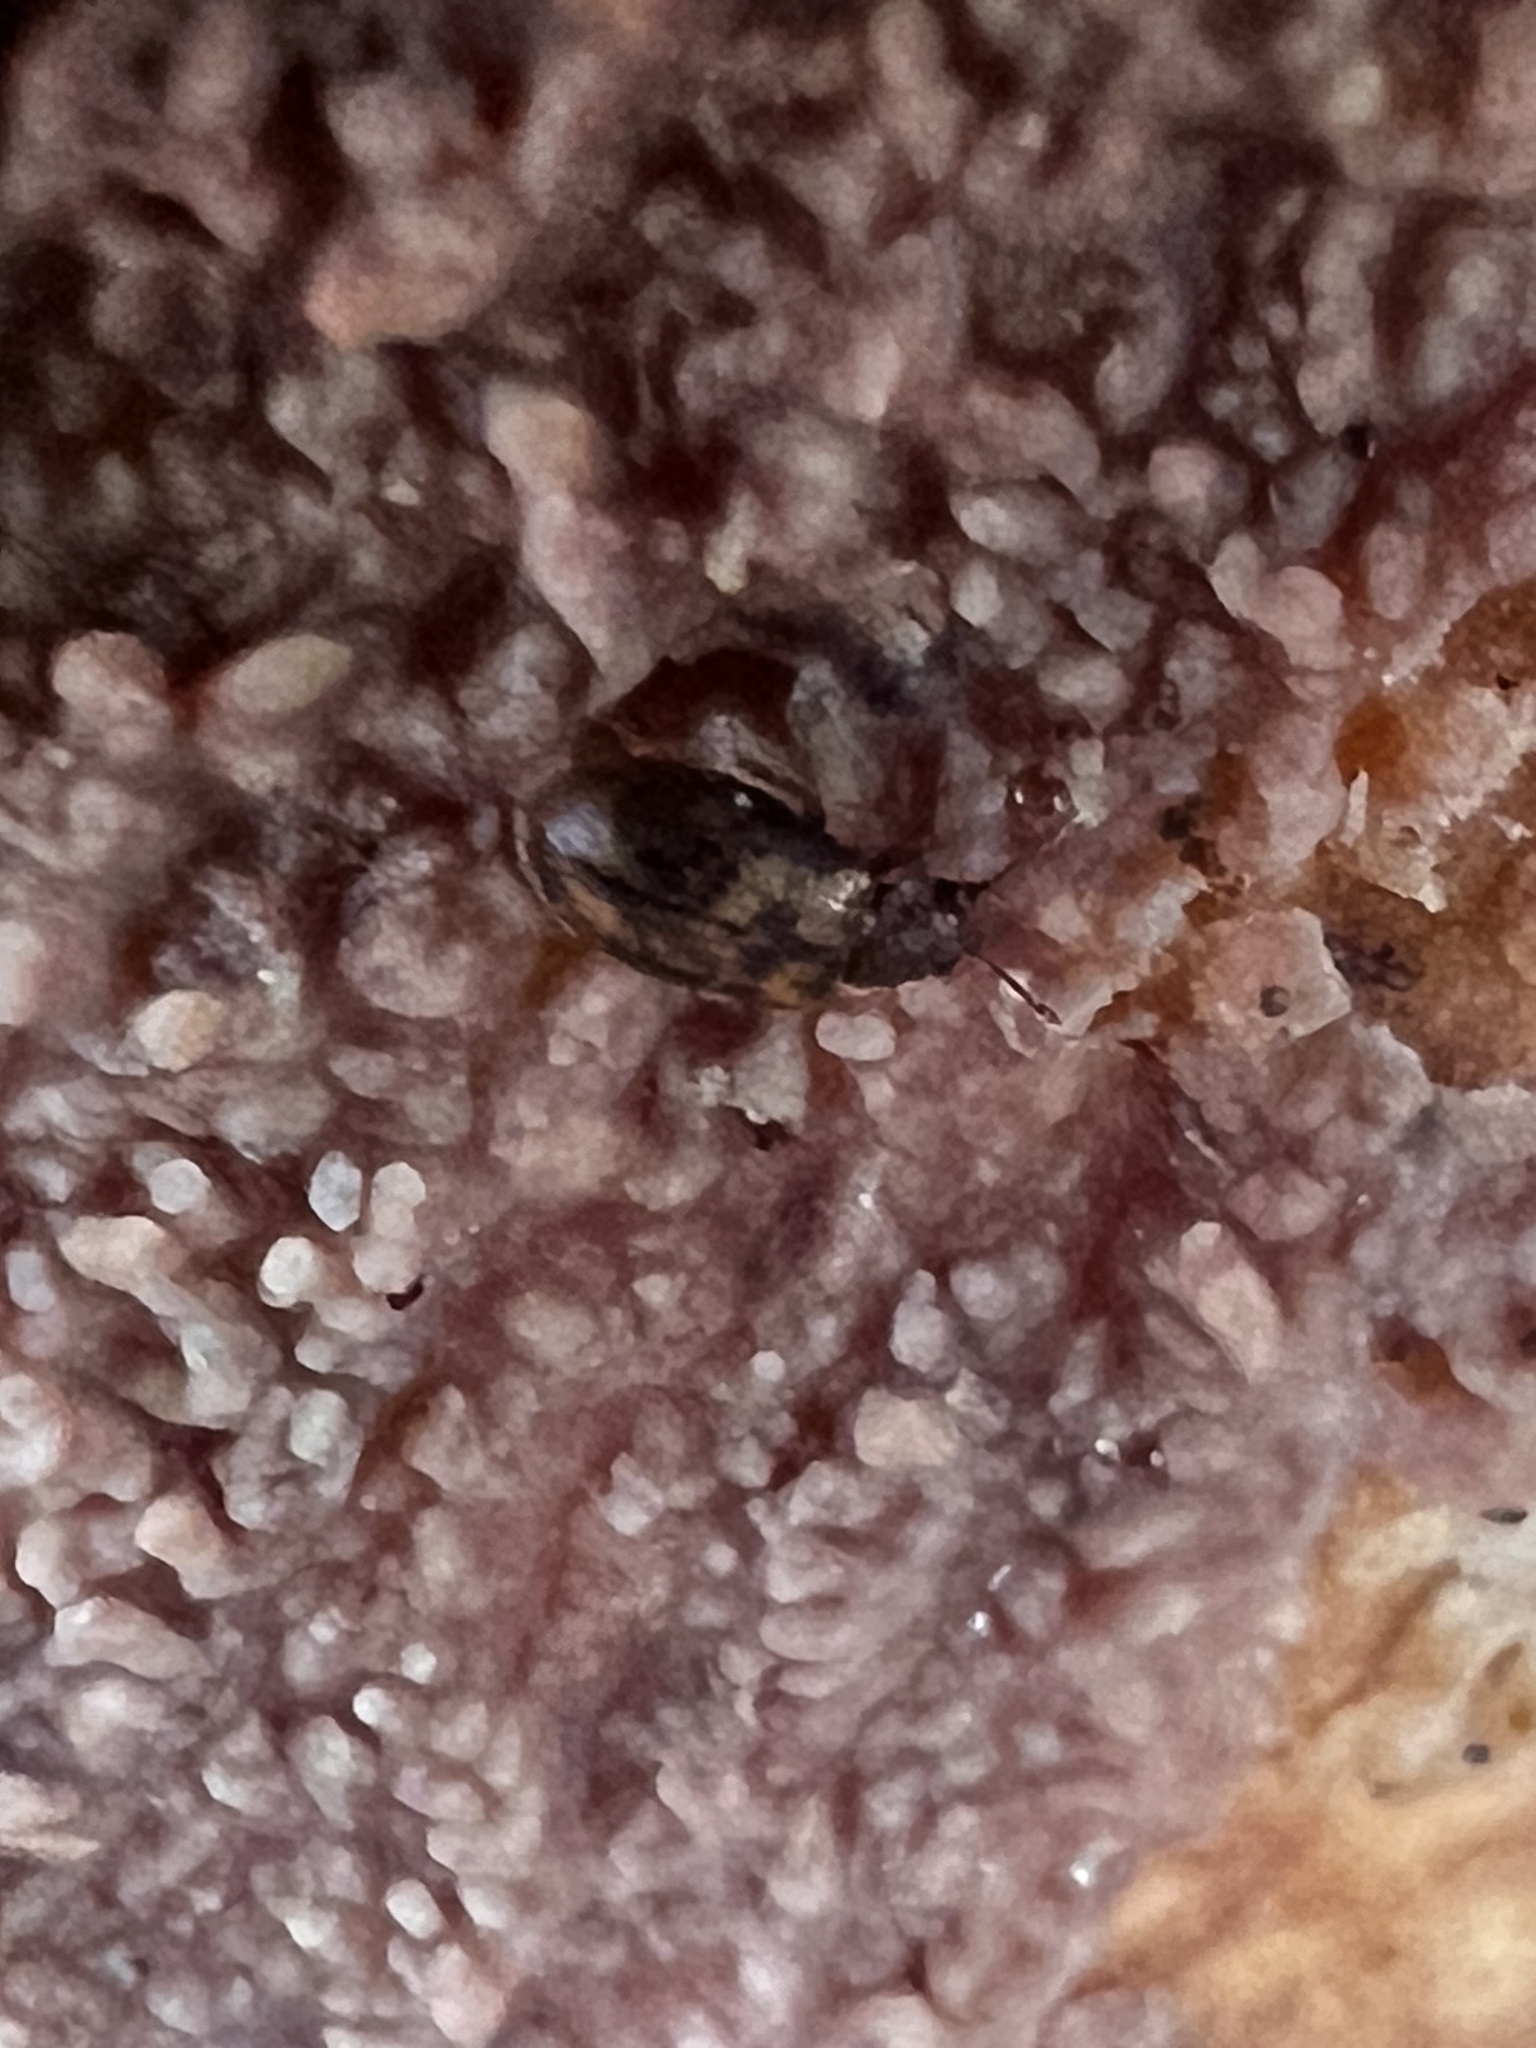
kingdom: Animalia
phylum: Arthropoda
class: Insecta
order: Coleoptera
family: Derodontidae
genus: Derodontus
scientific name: Derodontus esotericus
